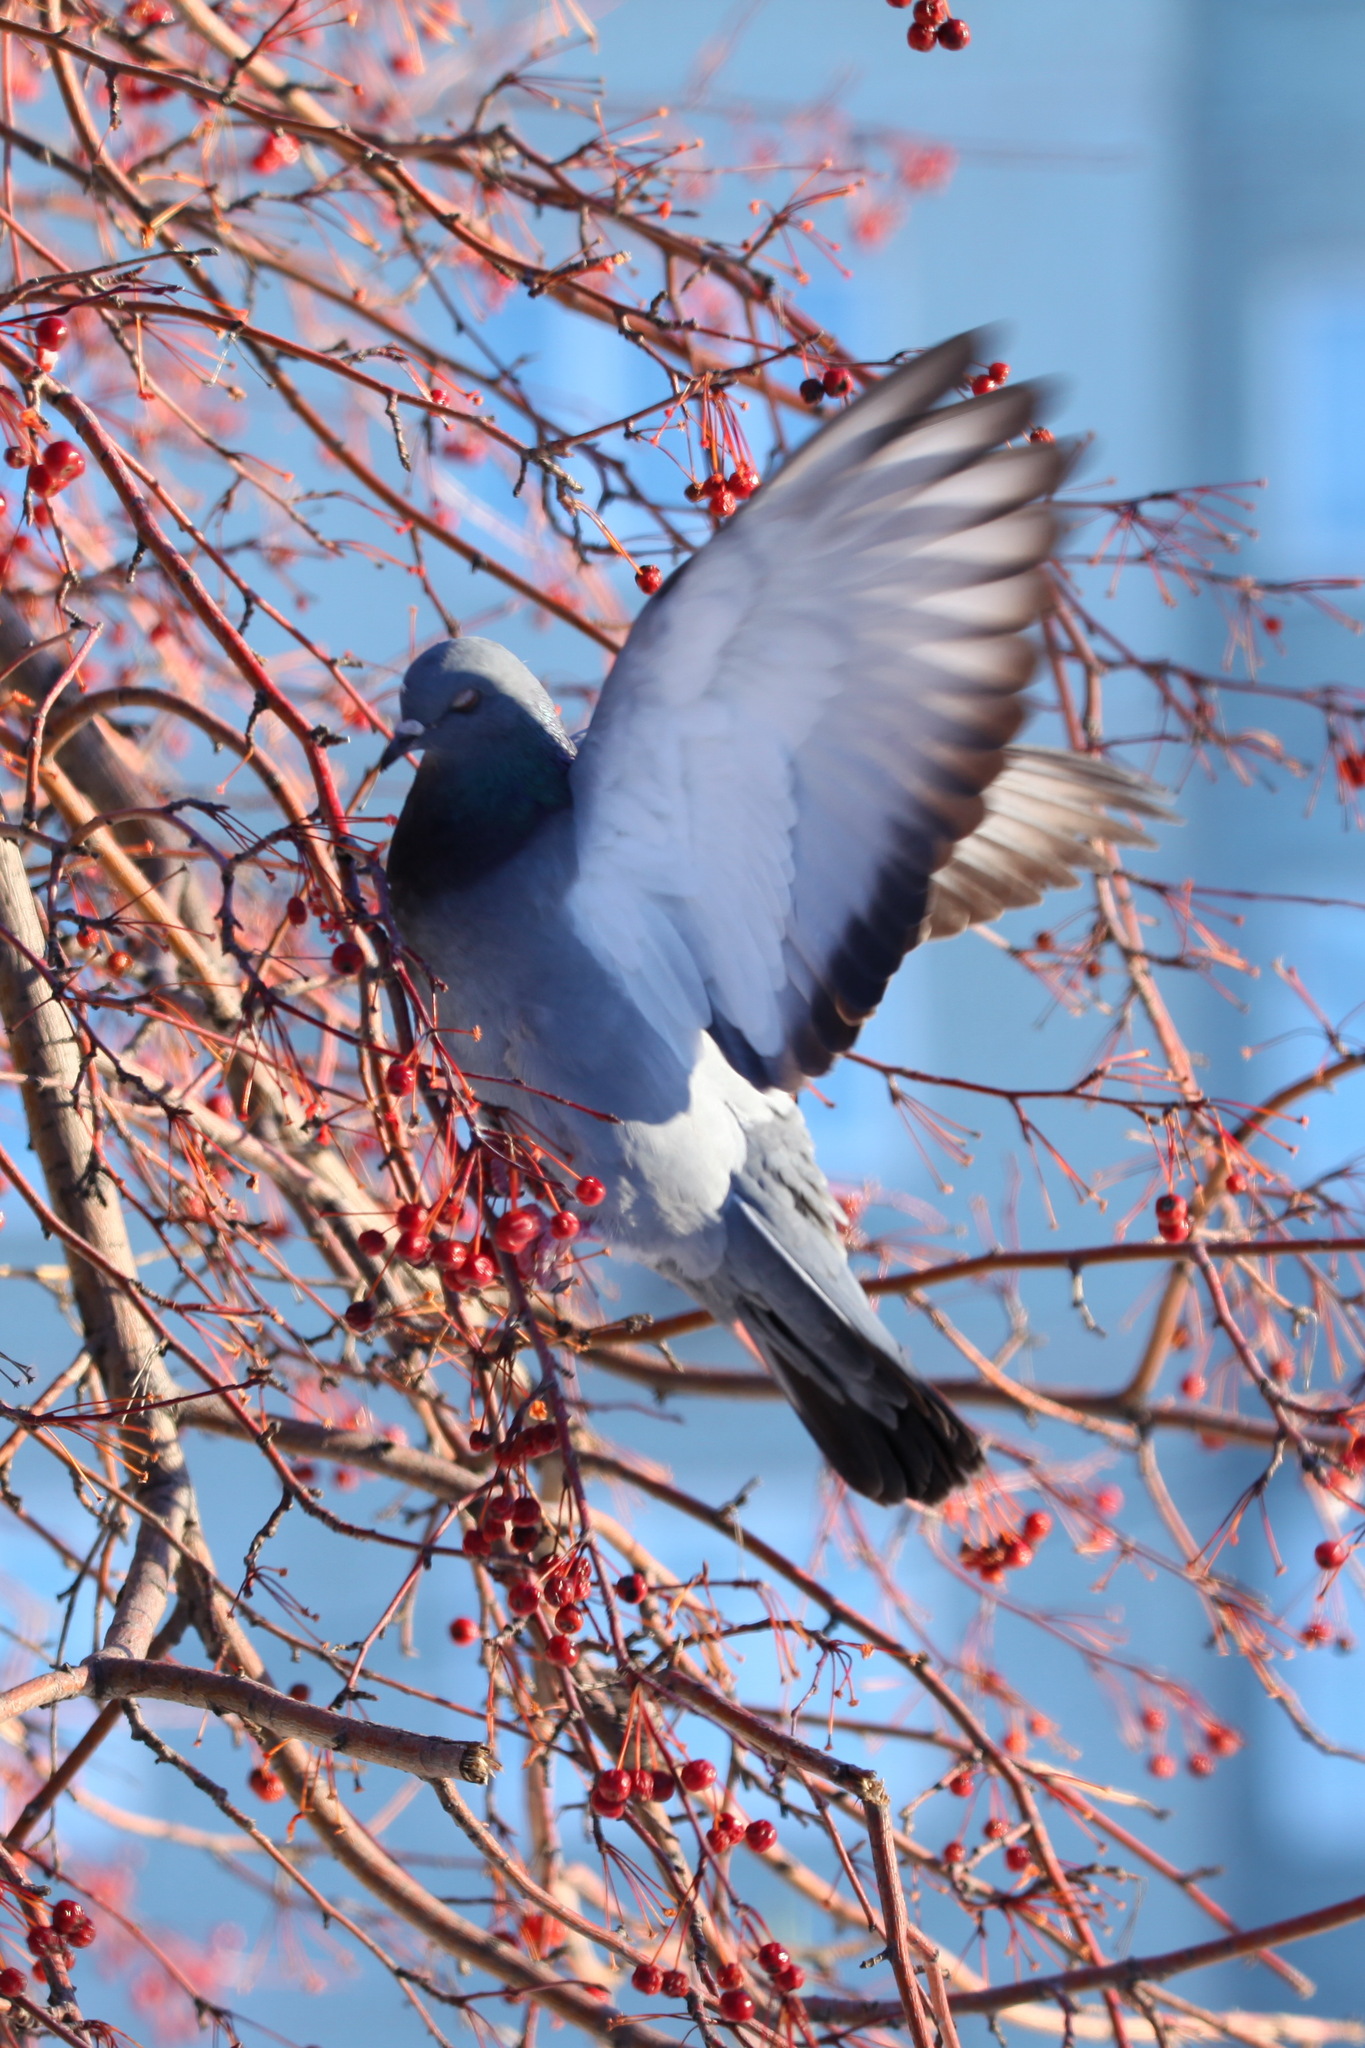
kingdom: Animalia
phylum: Chordata
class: Aves
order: Columbiformes
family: Columbidae
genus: Columba
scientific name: Columba livia
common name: Rock pigeon
